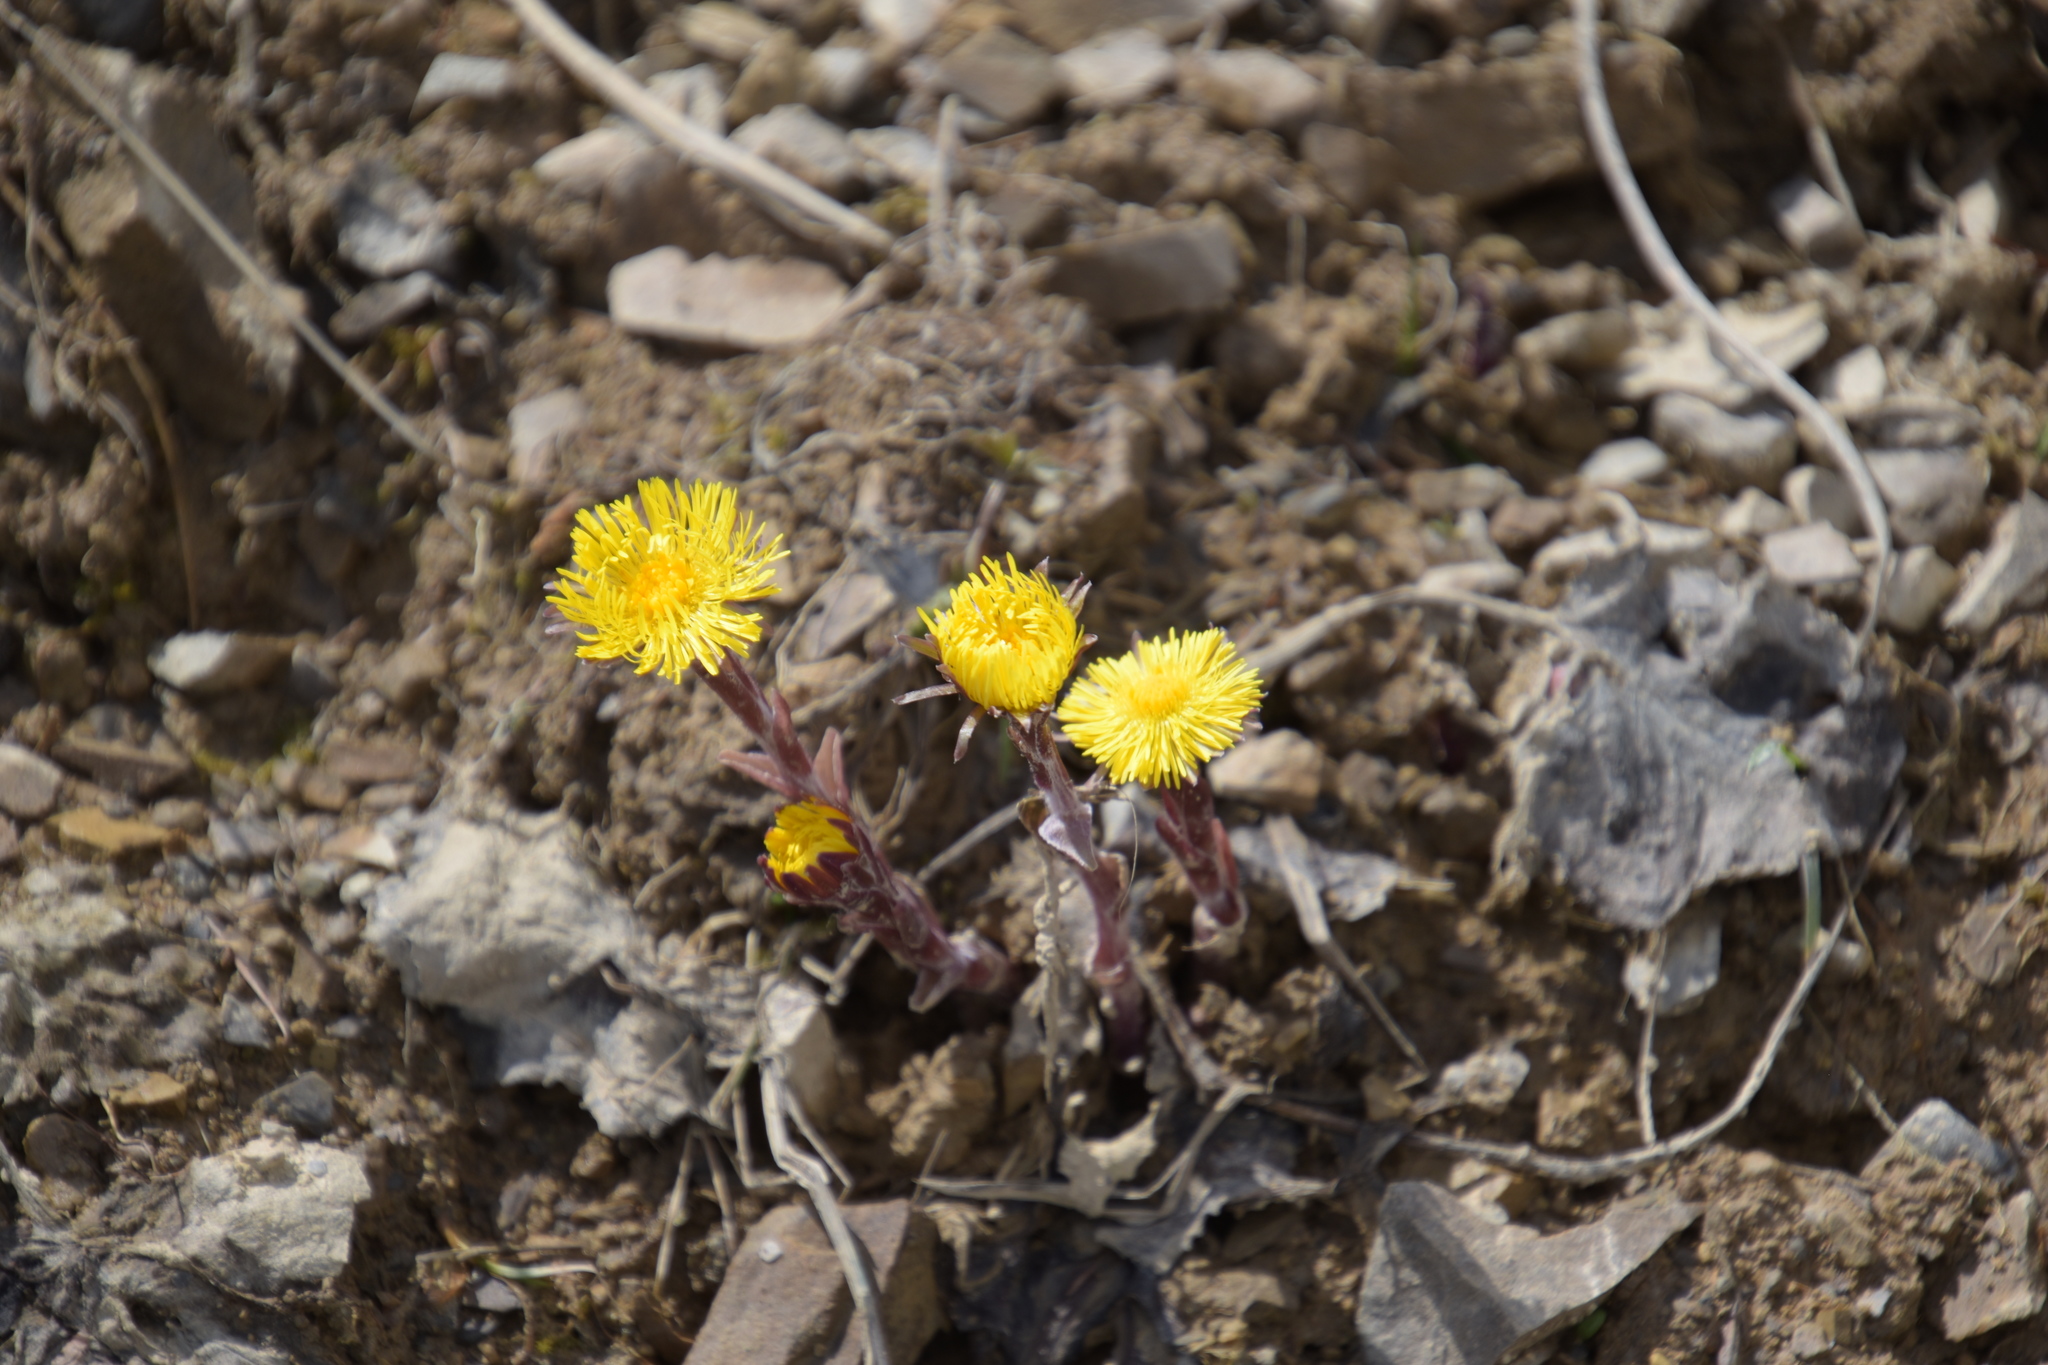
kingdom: Plantae
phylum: Tracheophyta
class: Magnoliopsida
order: Asterales
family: Asteraceae
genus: Tussilago
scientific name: Tussilago farfara
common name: Coltsfoot
